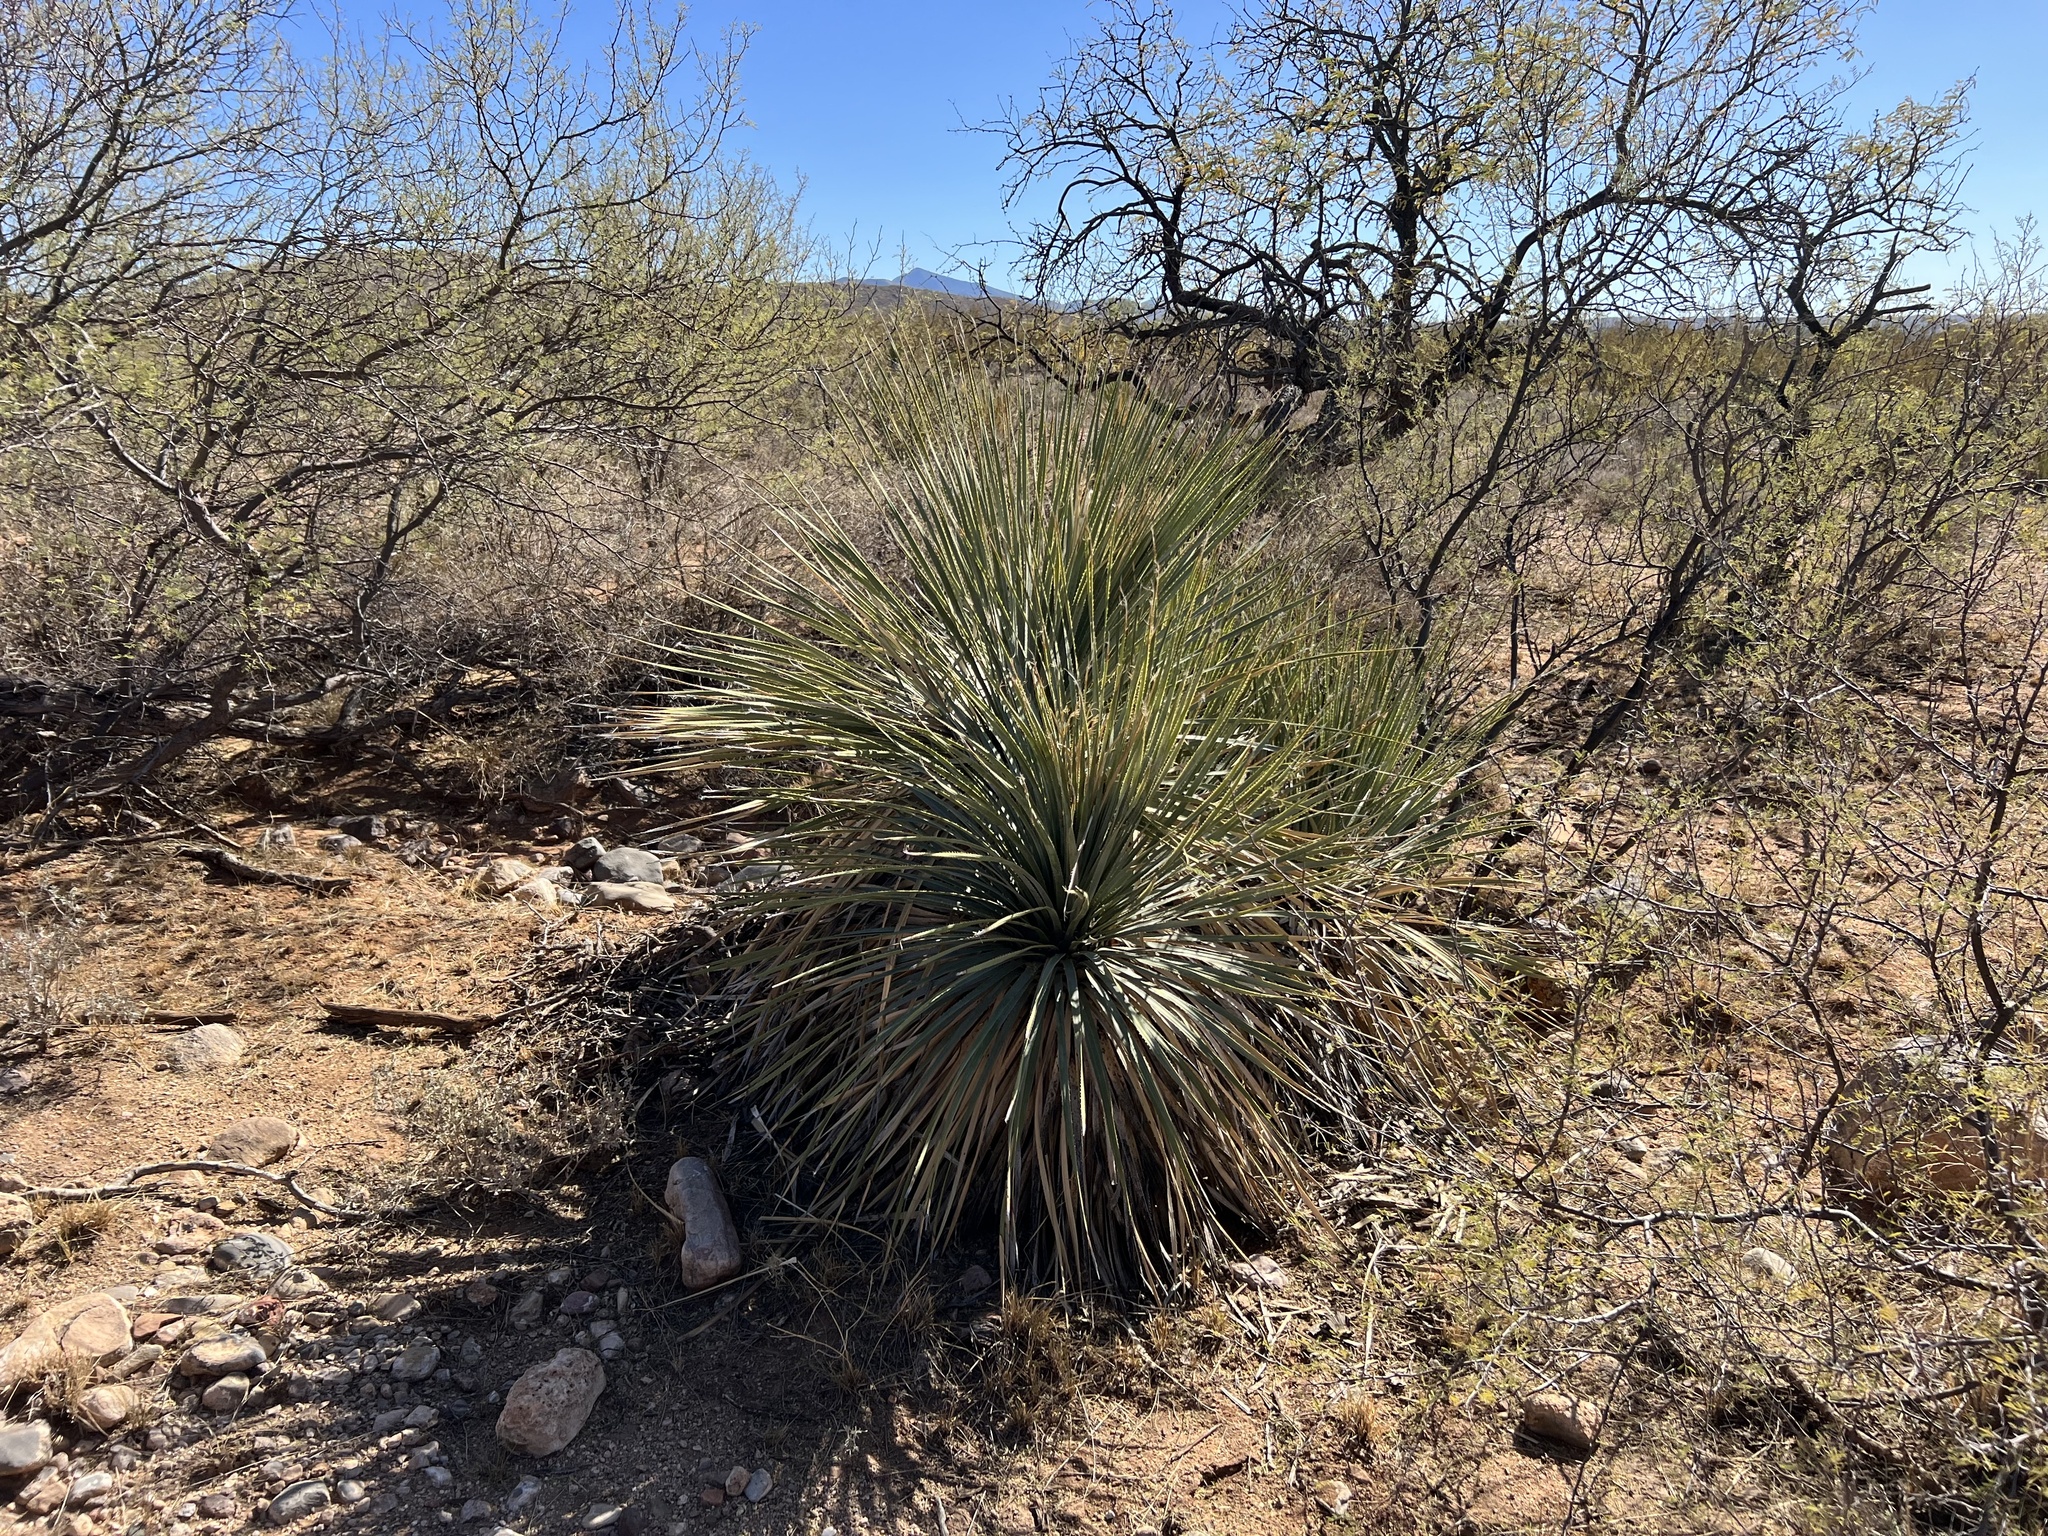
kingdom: Plantae
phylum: Tracheophyta
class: Liliopsida
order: Asparagales
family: Asparagaceae
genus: Dasylirion
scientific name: Dasylirion wheeleri
